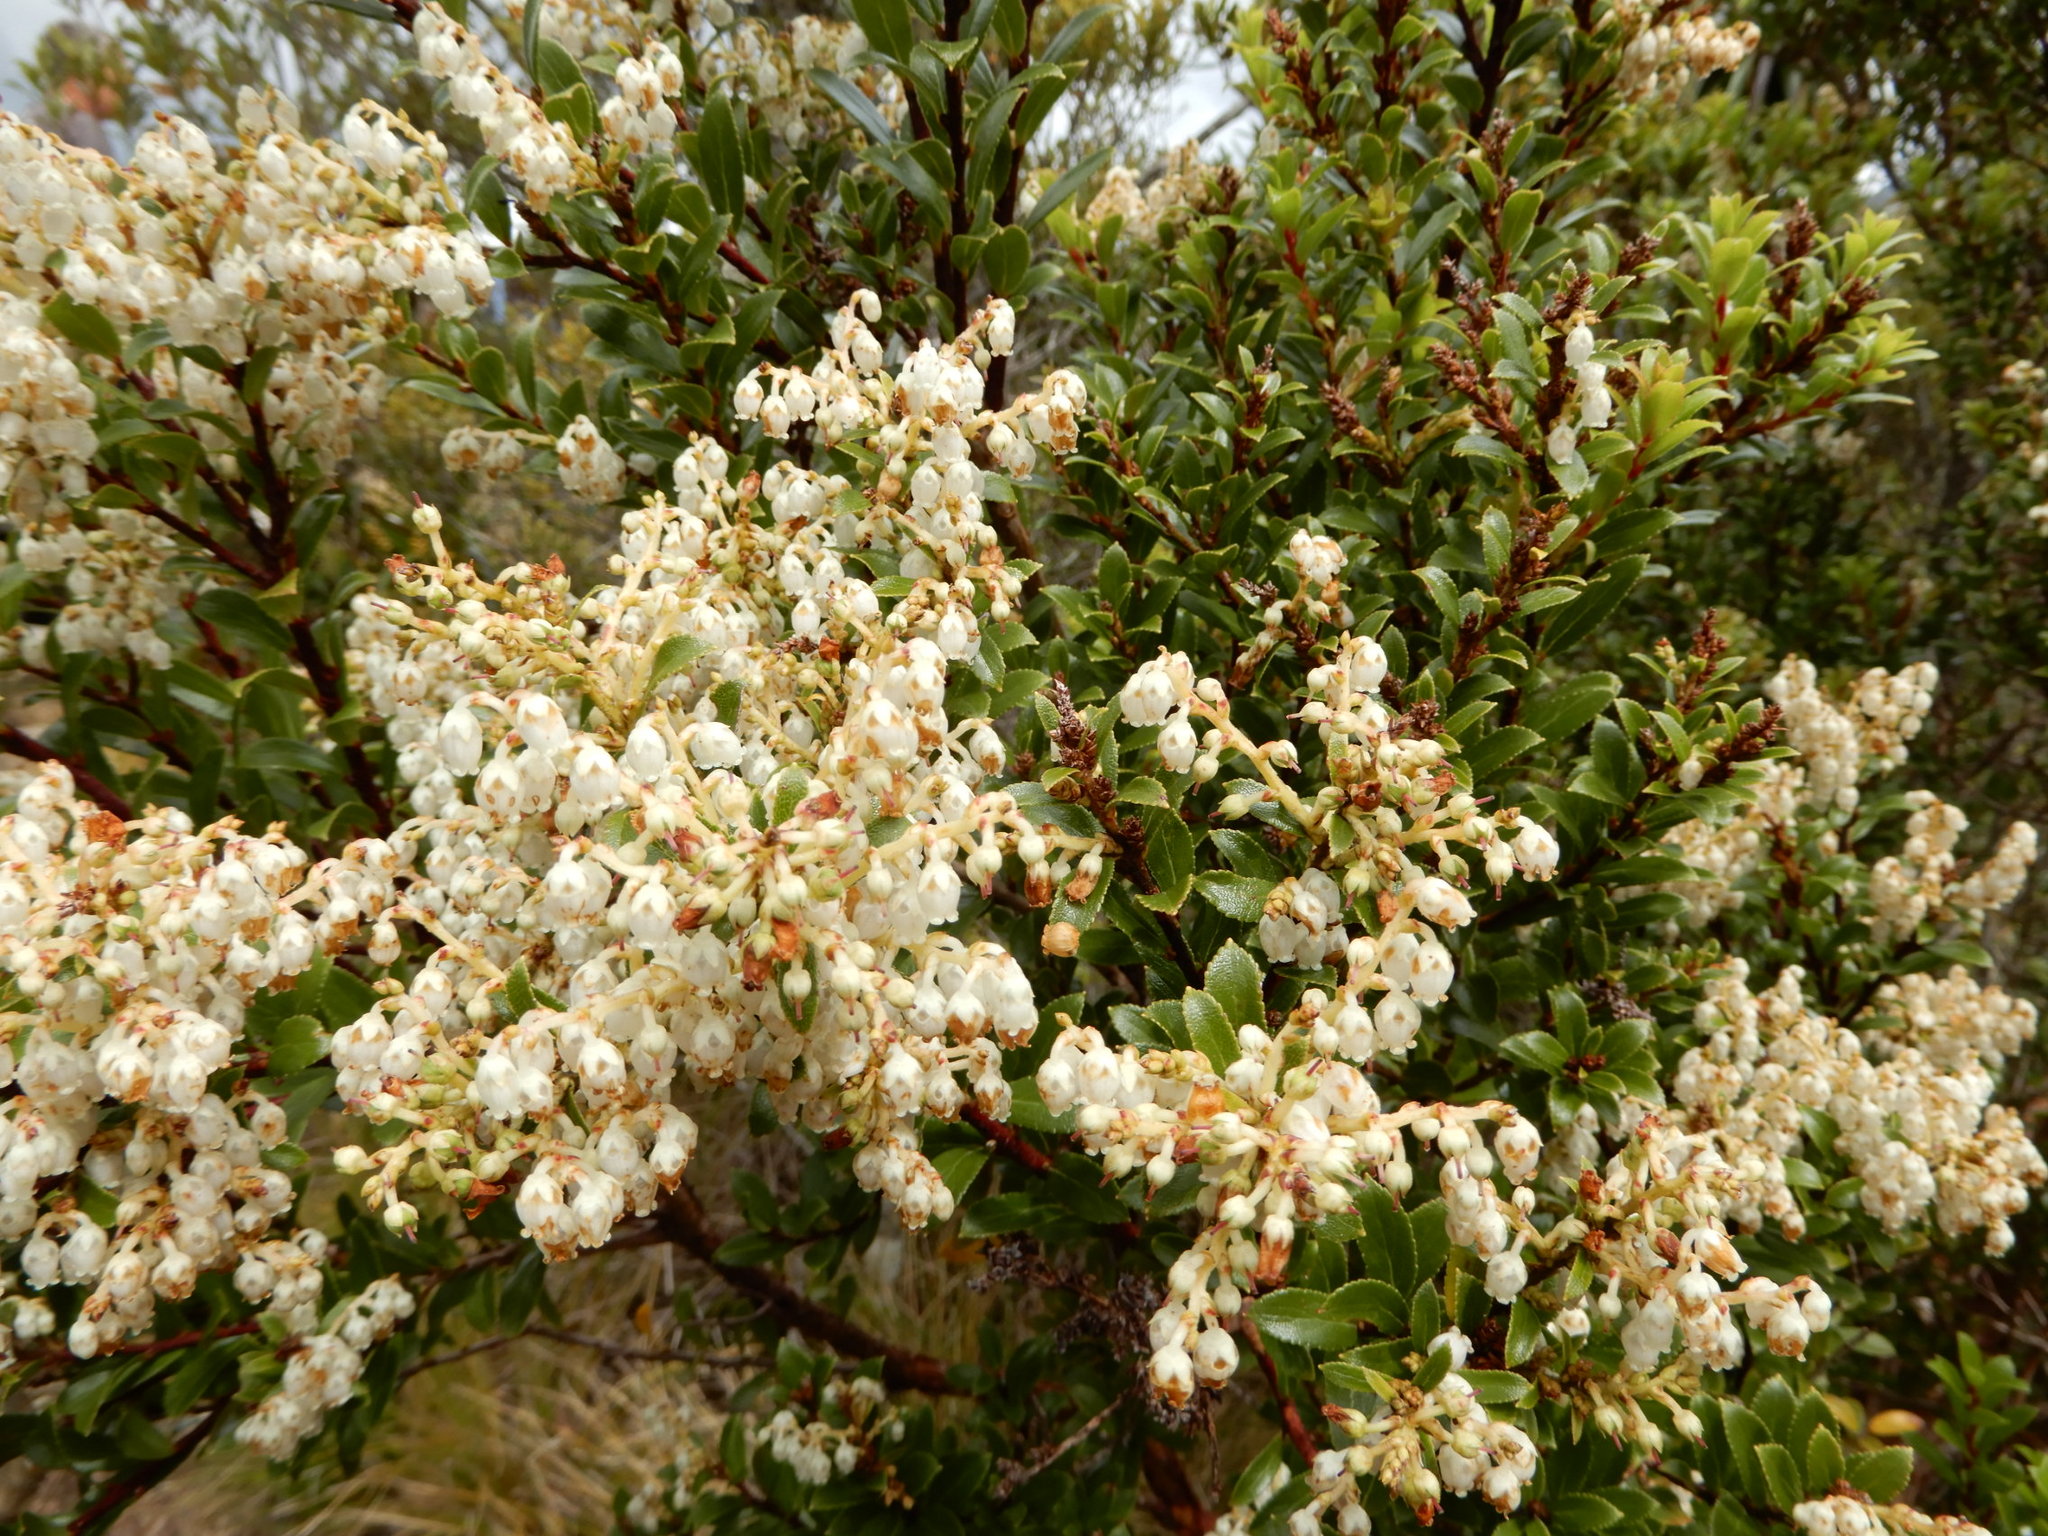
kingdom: Plantae
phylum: Tracheophyta
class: Magnoliopsida
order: Ericales
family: Ericaceae
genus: Gaultheria
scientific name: Gaultheria rupestris
